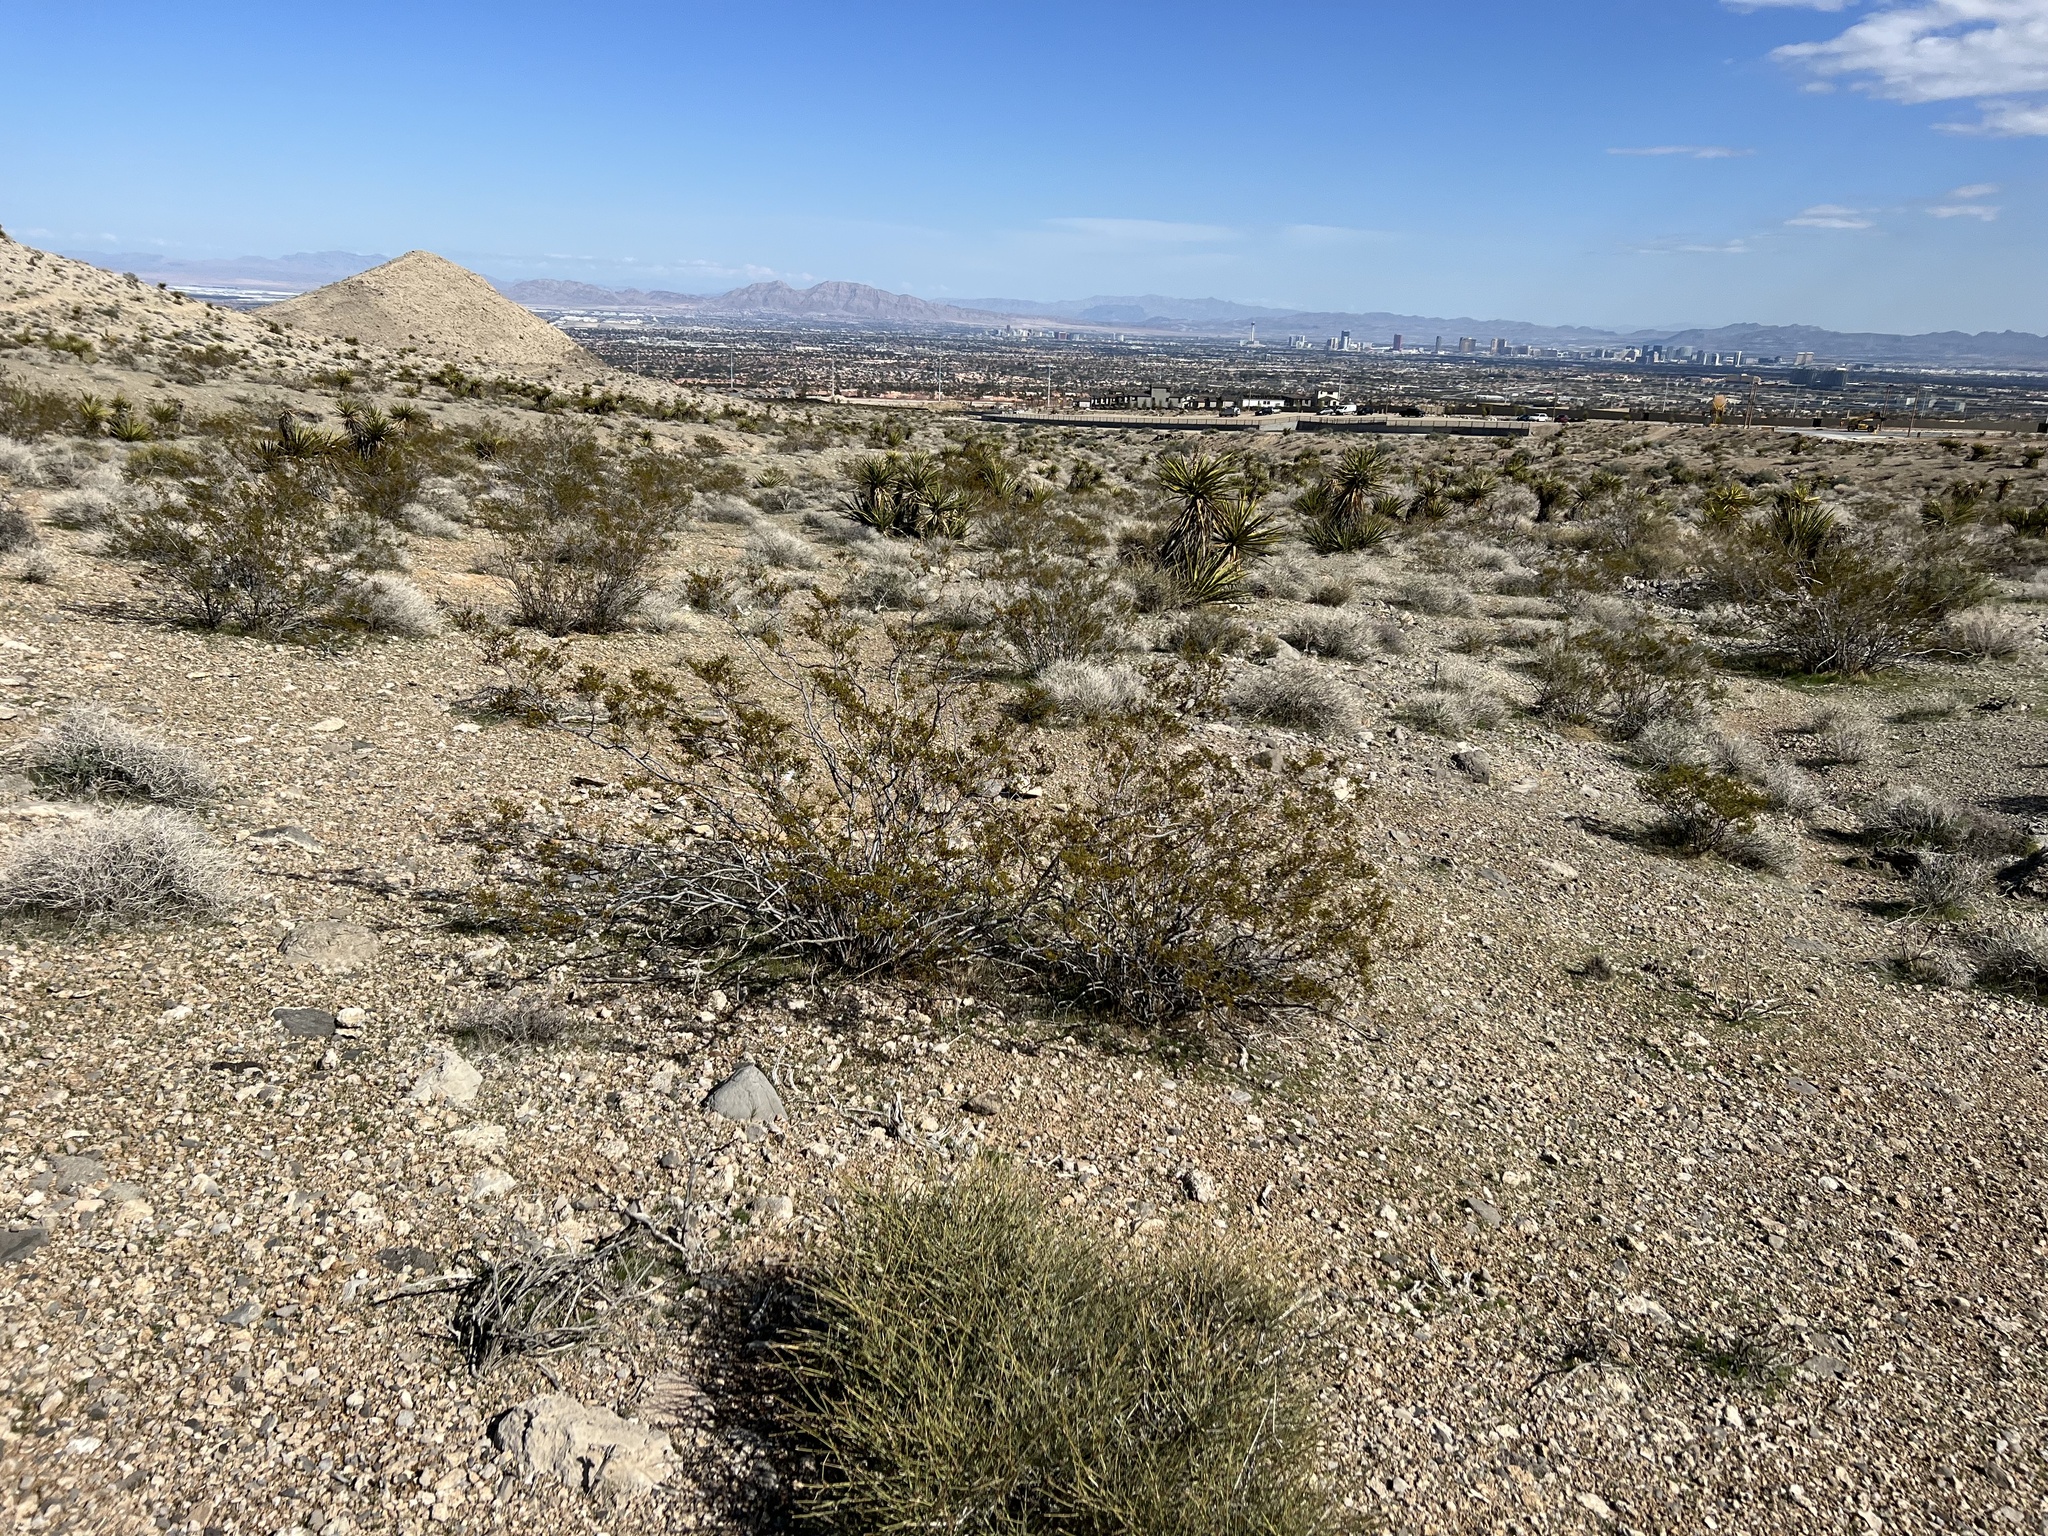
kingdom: Plantae
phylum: Tracheophyta
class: Magnoliopsida
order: Zygophyllales
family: Zygophyllaceae
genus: Larrea
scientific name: Larrea tridentata
